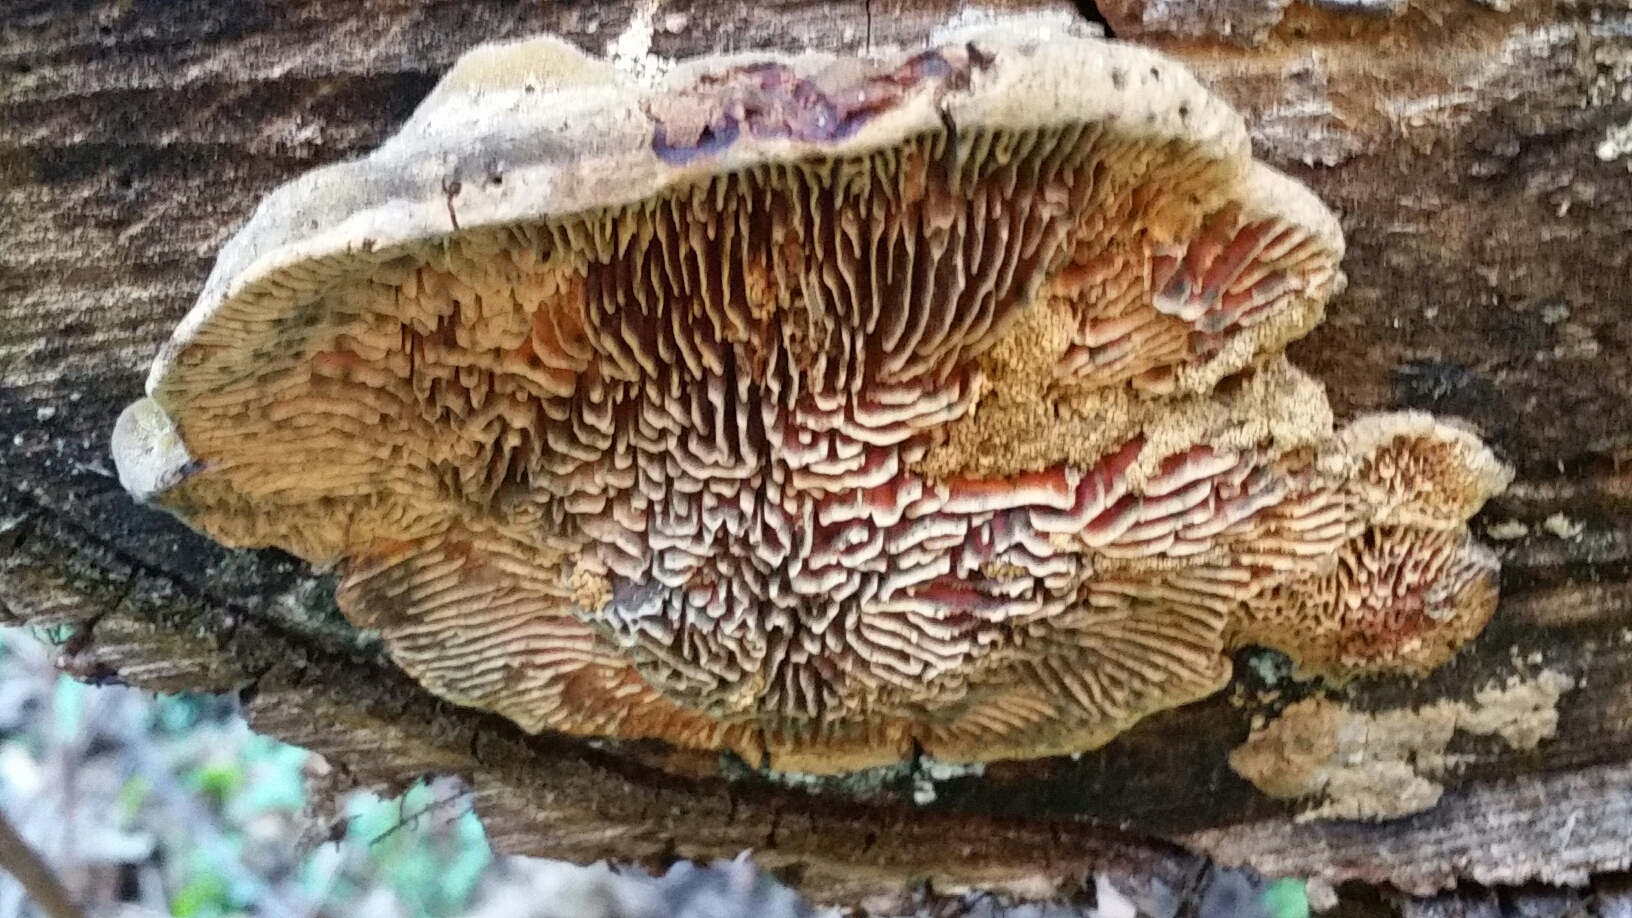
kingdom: Fungi
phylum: Basidiomycota
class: Agaricomycetes
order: Polyporales
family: Fomitopsidaceae
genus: Fomitopsis
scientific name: Fomitopsis
